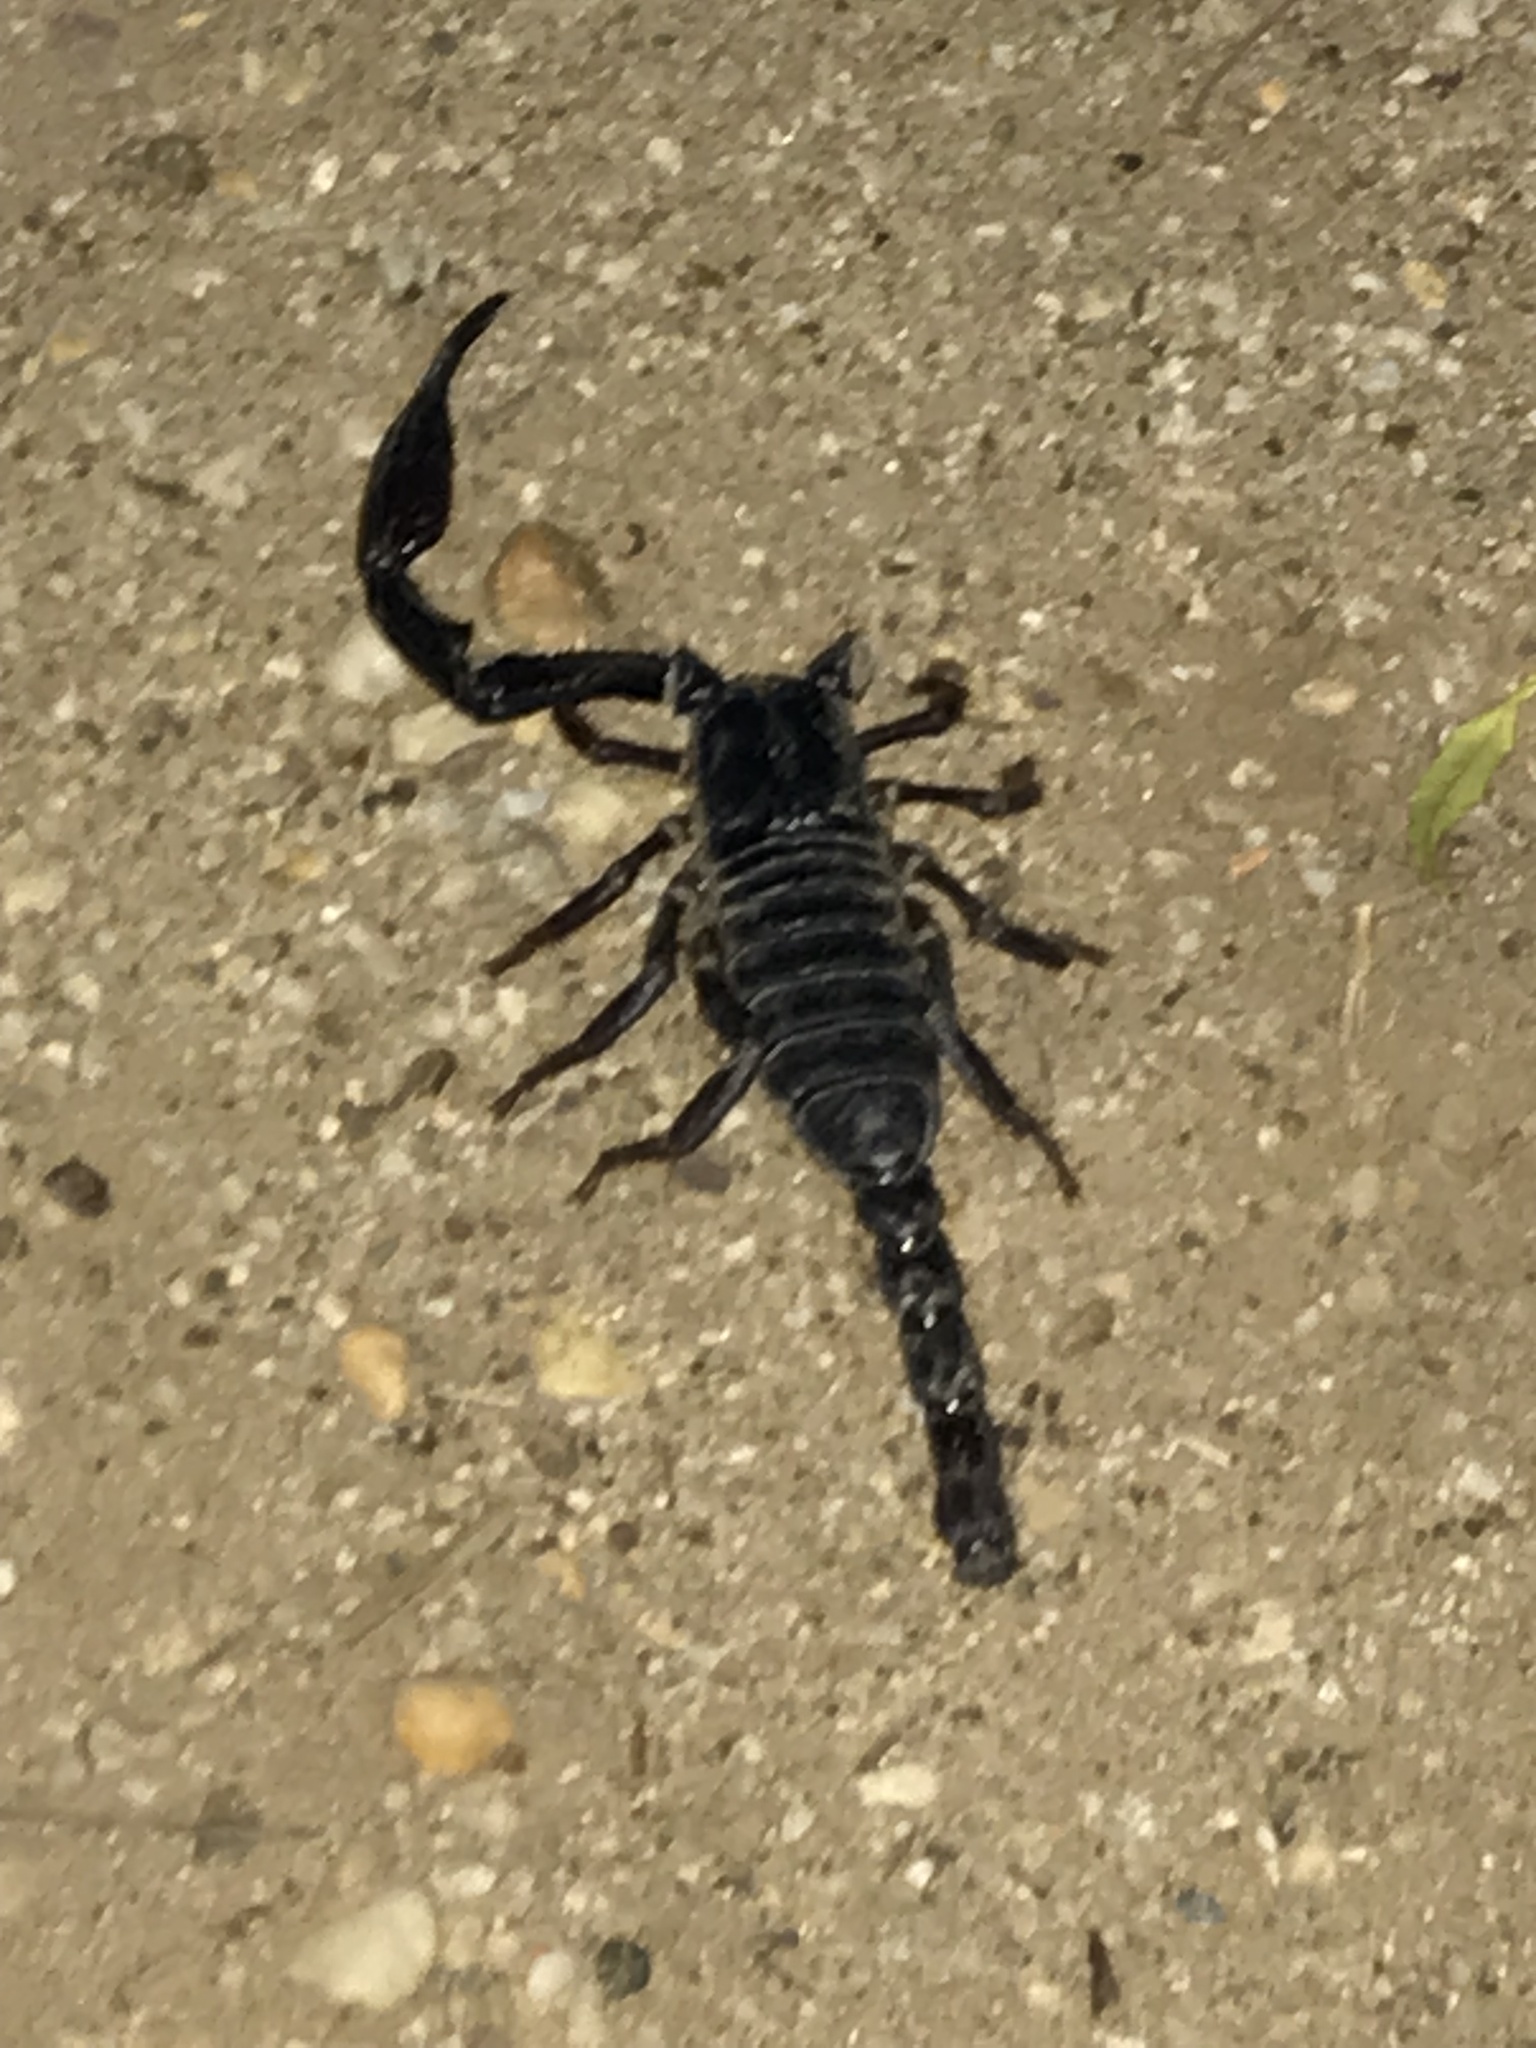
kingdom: Animalia
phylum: Arthropoda
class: Arachnida
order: Scorpiones
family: Scorpionidae
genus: Heterometrus
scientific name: Heterometrus thorellii
